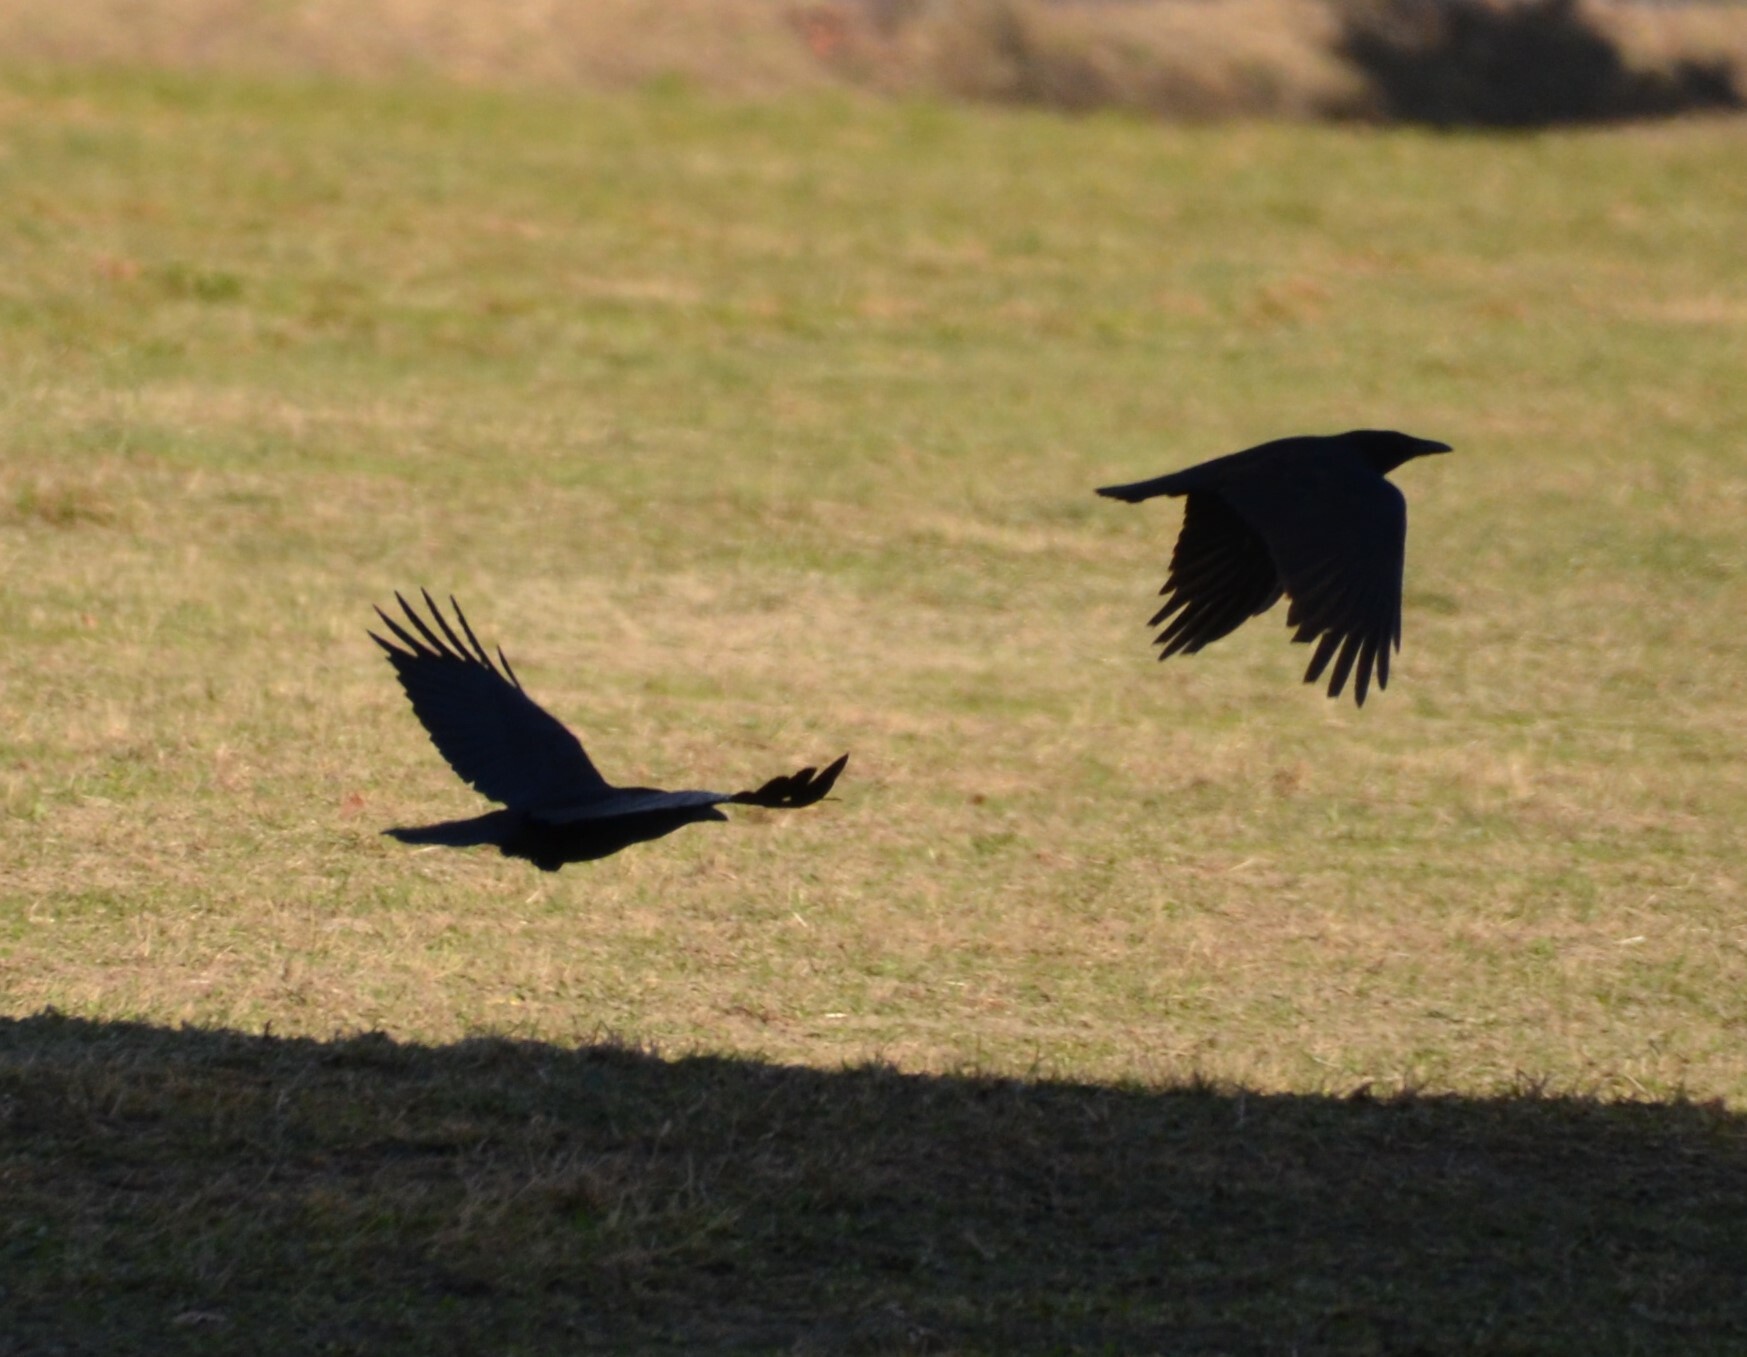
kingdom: Animalia
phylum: Chordata
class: Aves
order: Passeriformes
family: Corvidae
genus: Corvus
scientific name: Corvus corone
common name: Carrion crow
